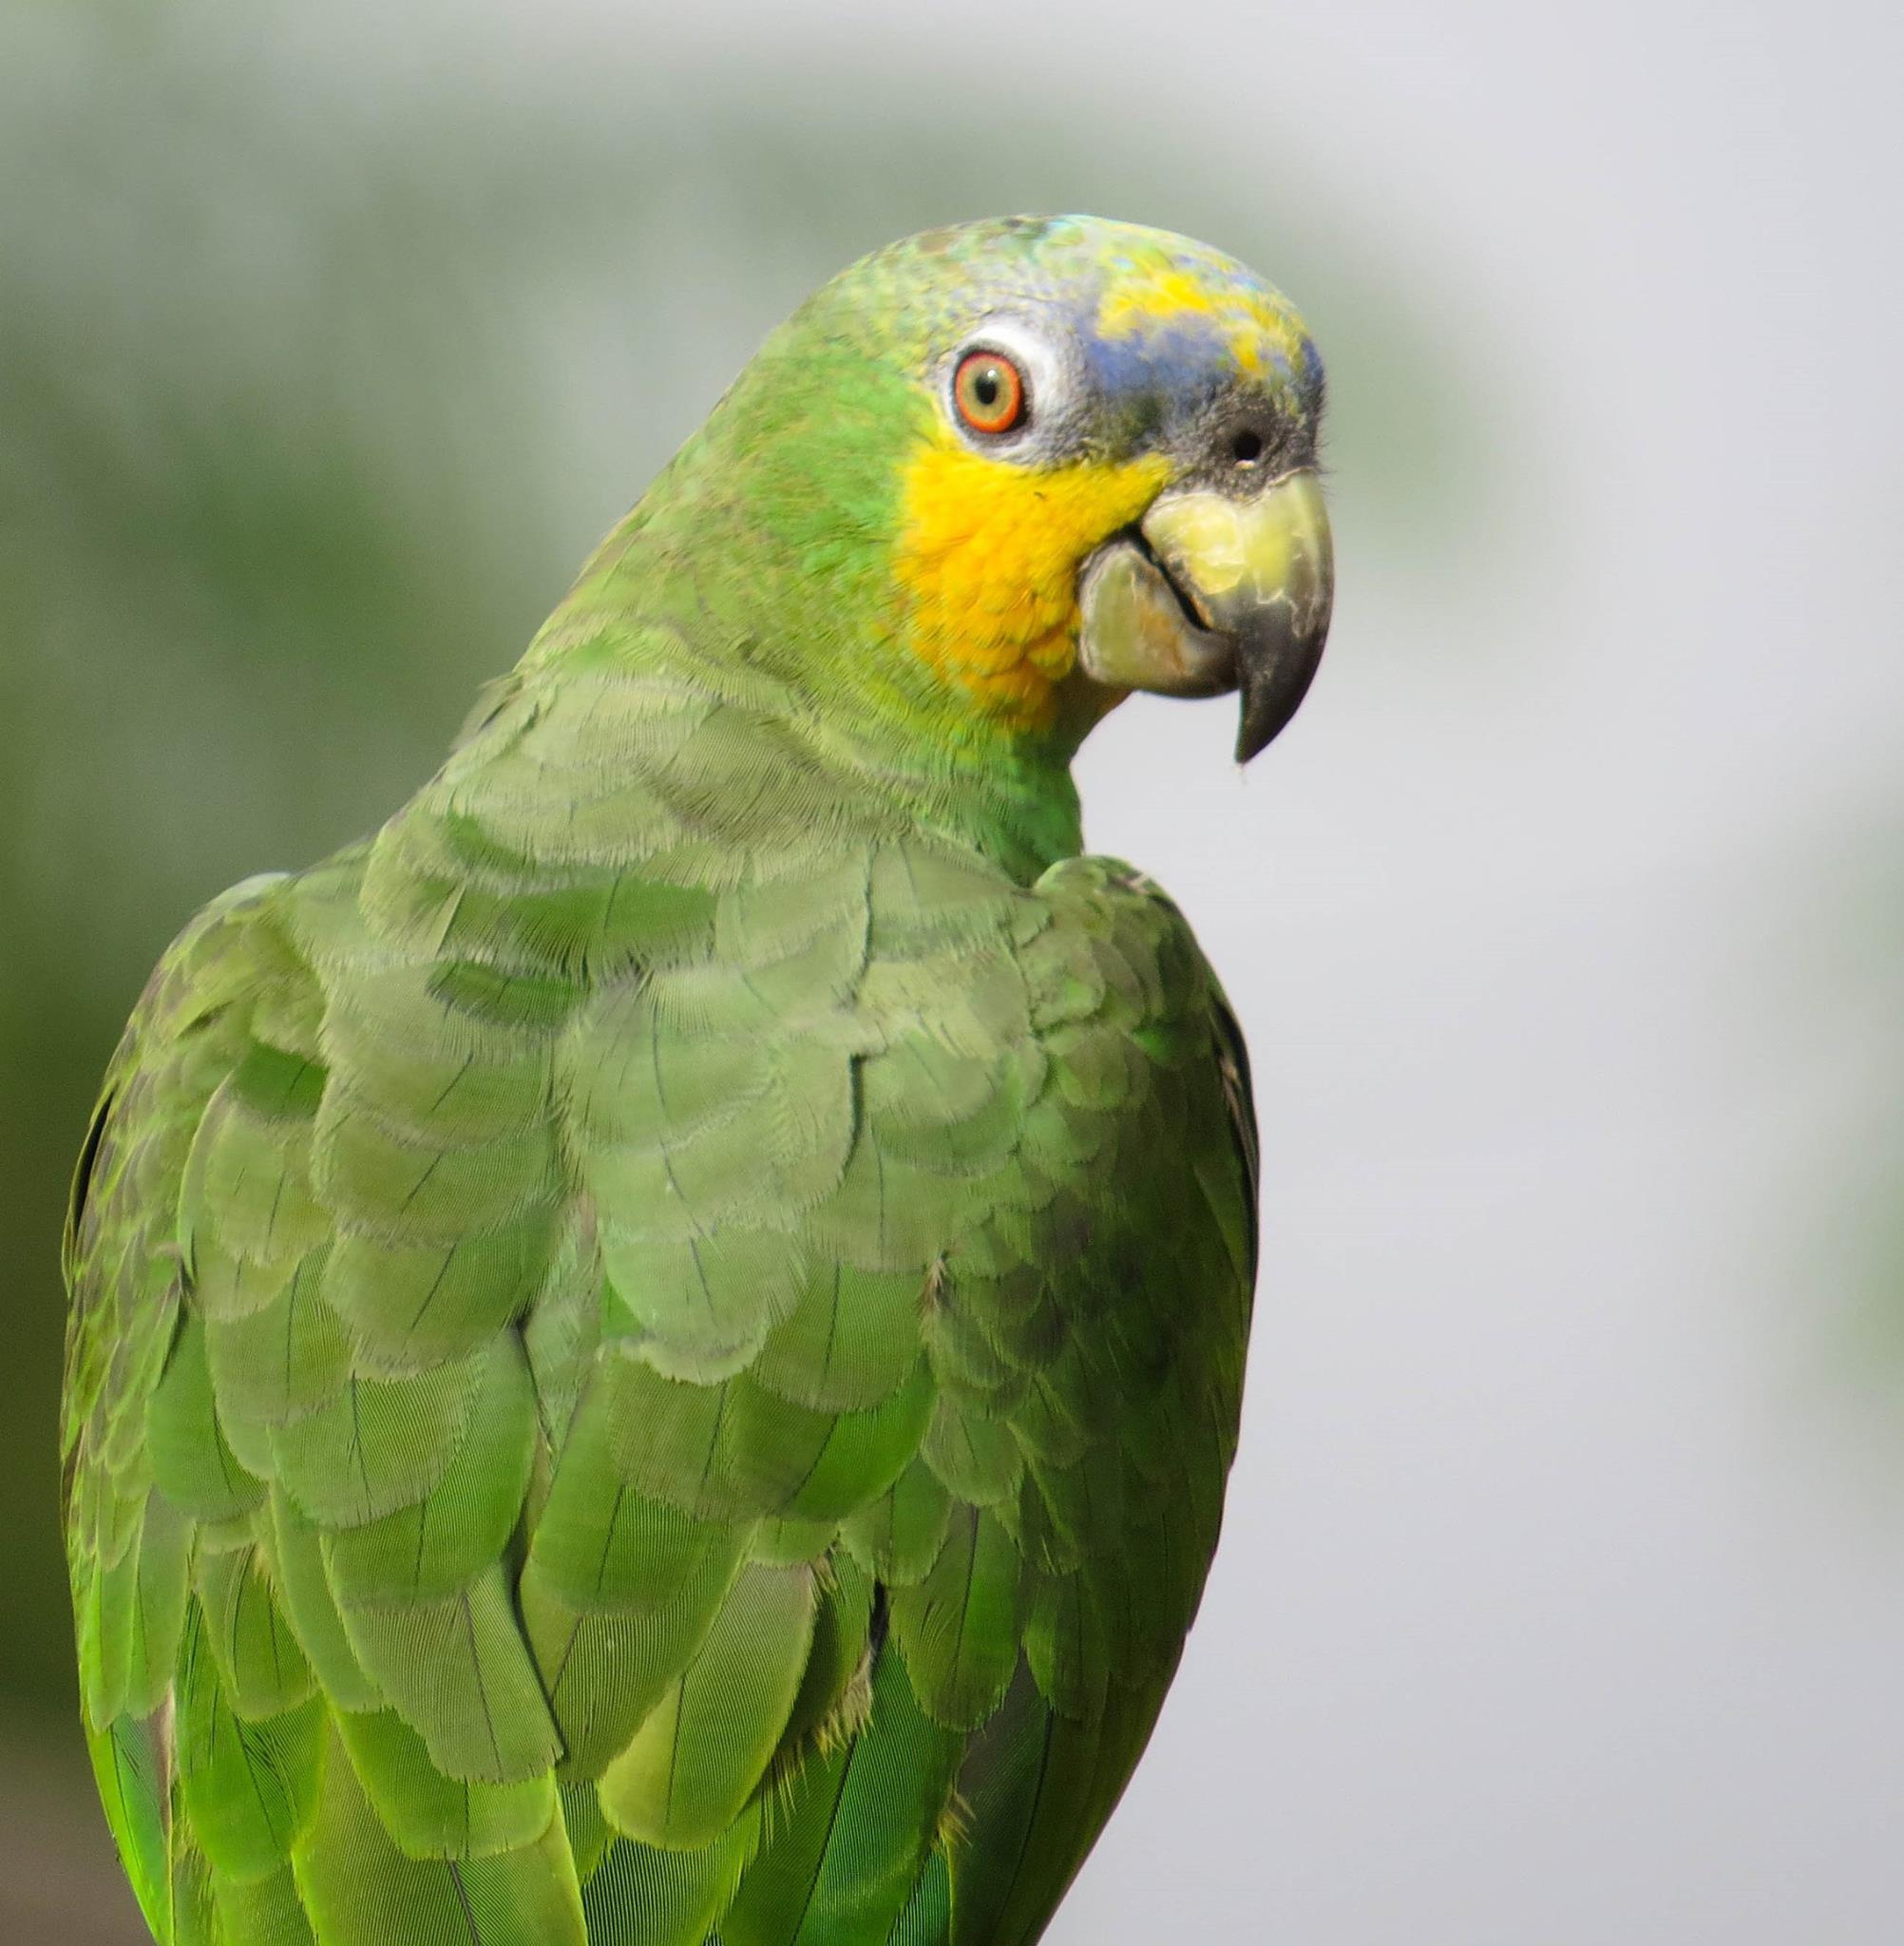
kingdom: Animalia
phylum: Chordata
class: Aves
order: Psittaciformes
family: Psittacidae
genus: Amazona
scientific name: Amazona amazonica
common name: Orange-winged amazon
